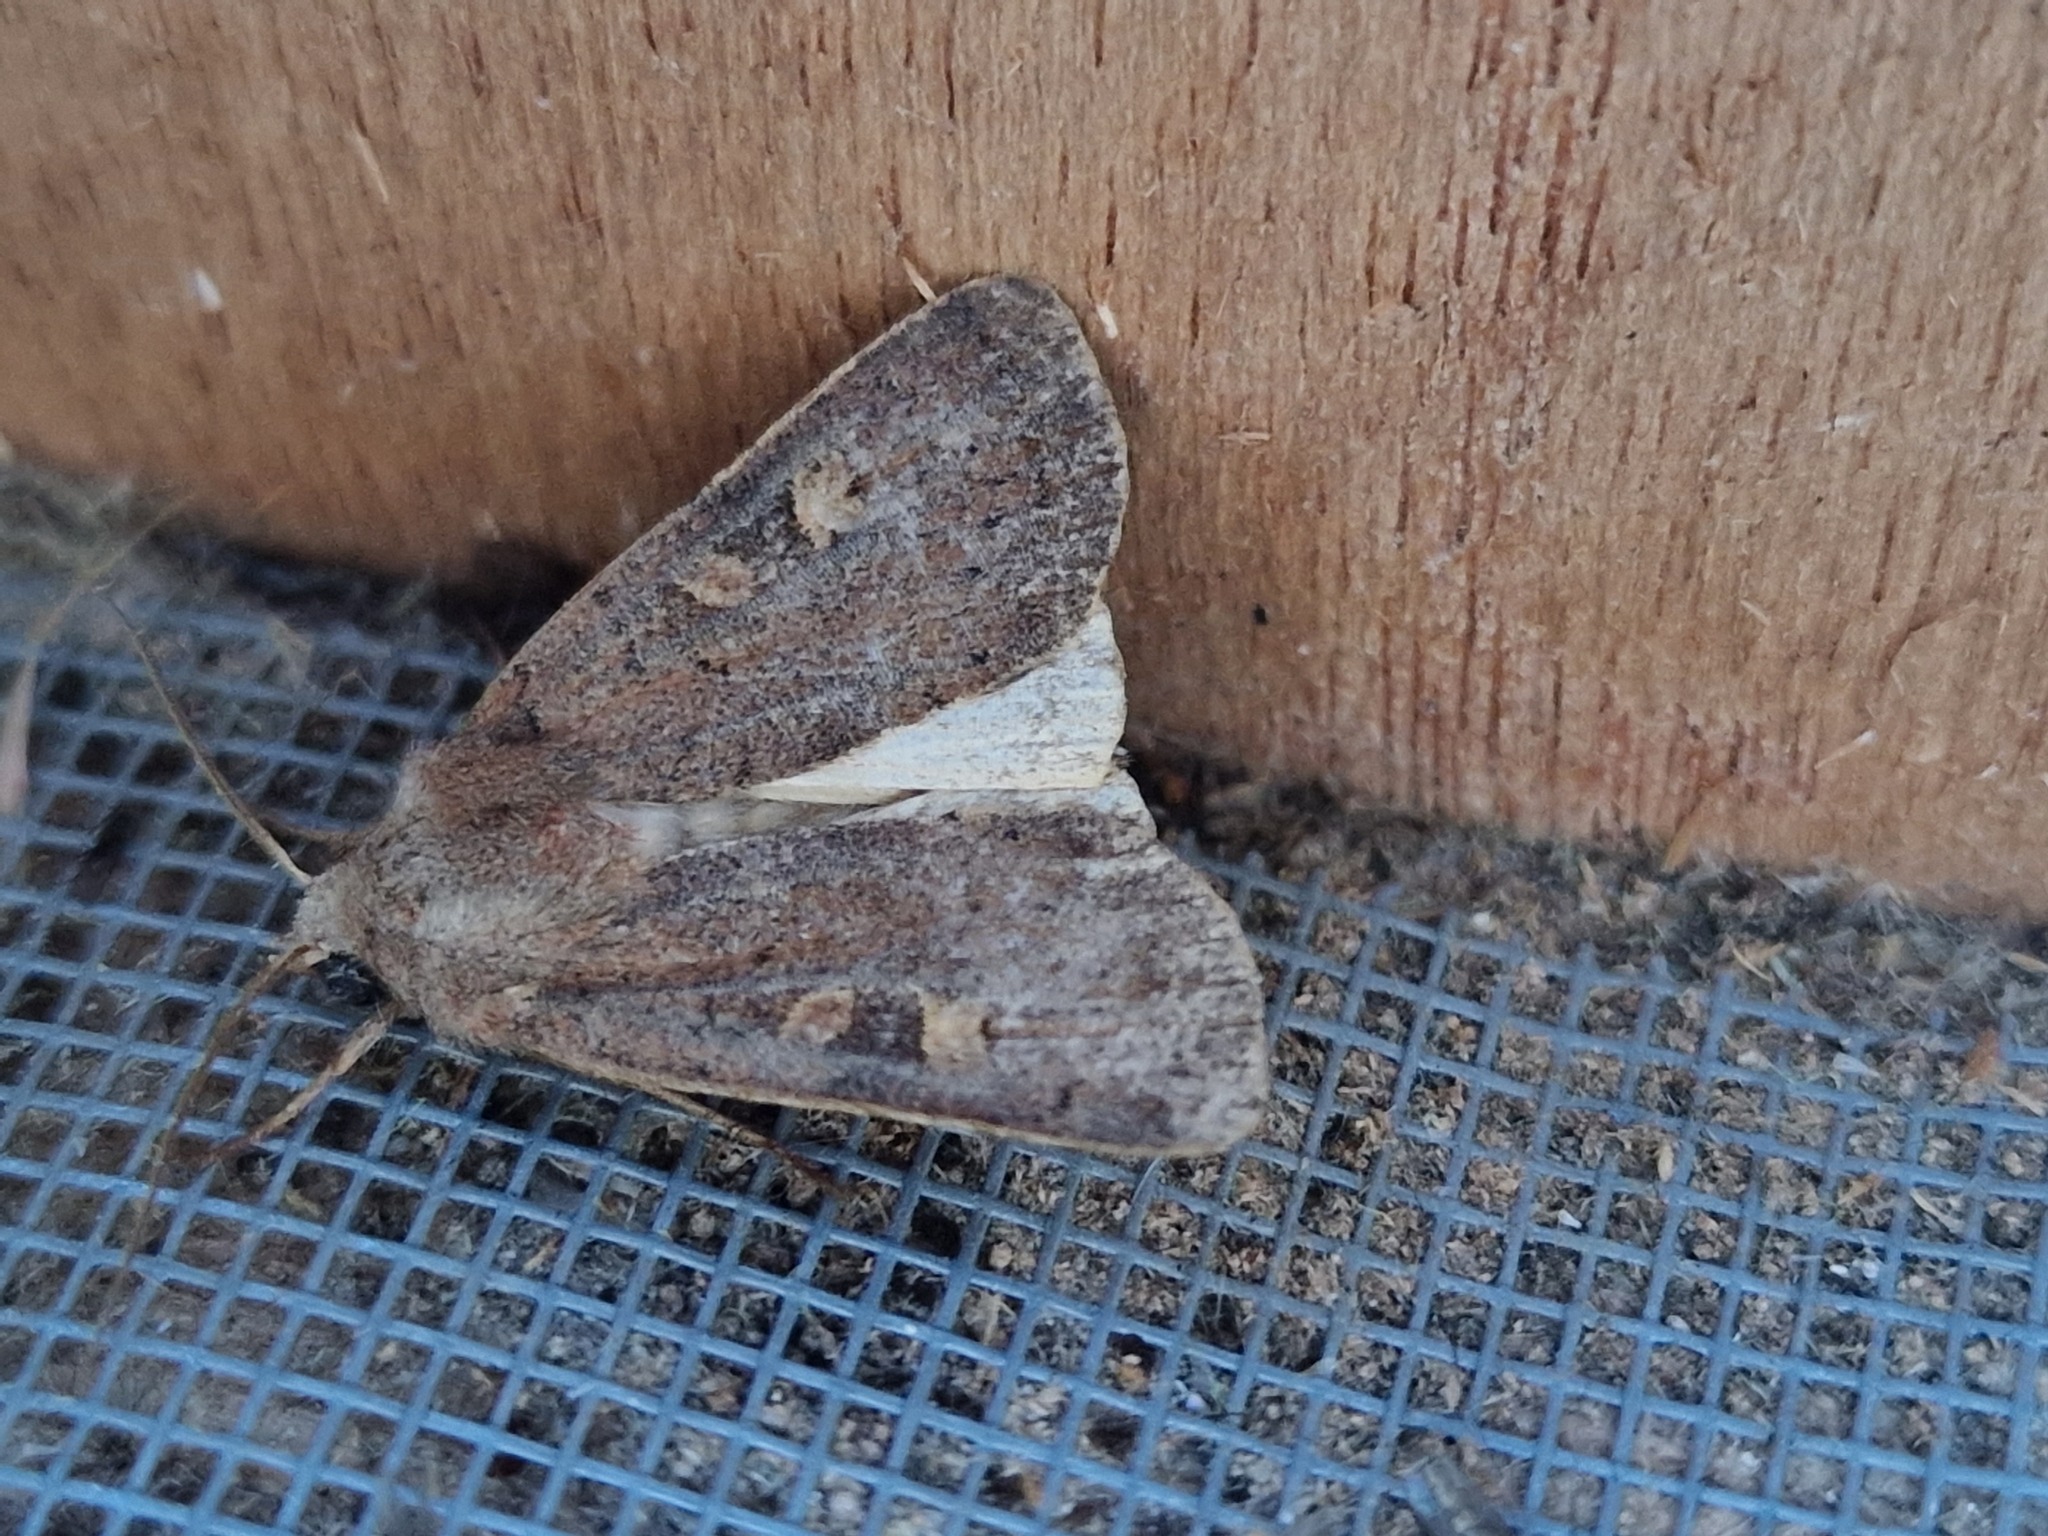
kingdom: Animalia
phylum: Arthropoda
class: Insecta
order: Lepidoptera
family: Noctuidae
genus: Xestia
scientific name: Xestia xanthographa
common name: Square-spot rustic
